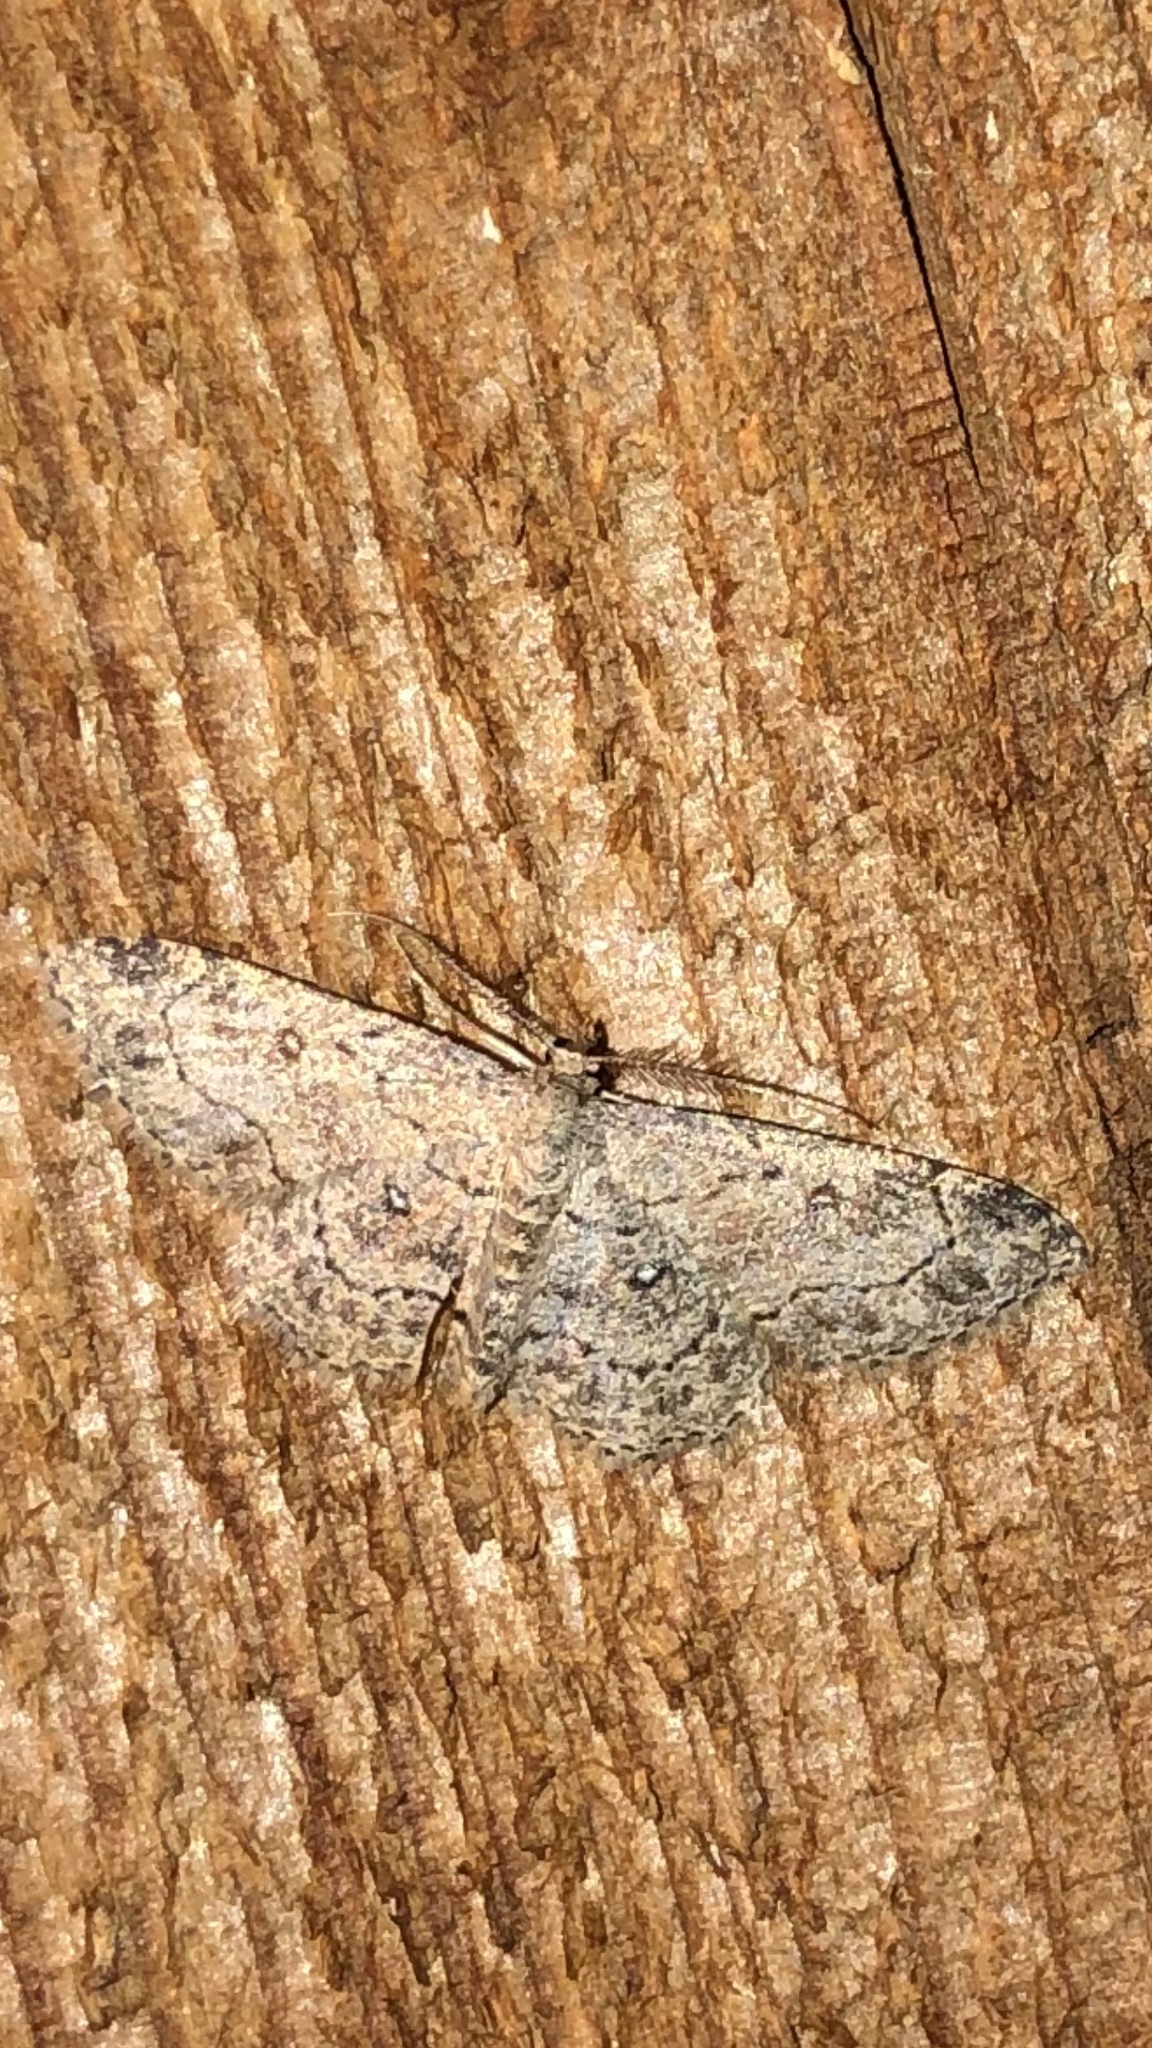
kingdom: Animalia
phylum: Arthropoda
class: Insecta
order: Lepidoptera
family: Geometridae
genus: Cyclophora
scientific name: Cyclophora nanaria
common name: Cankerworm
